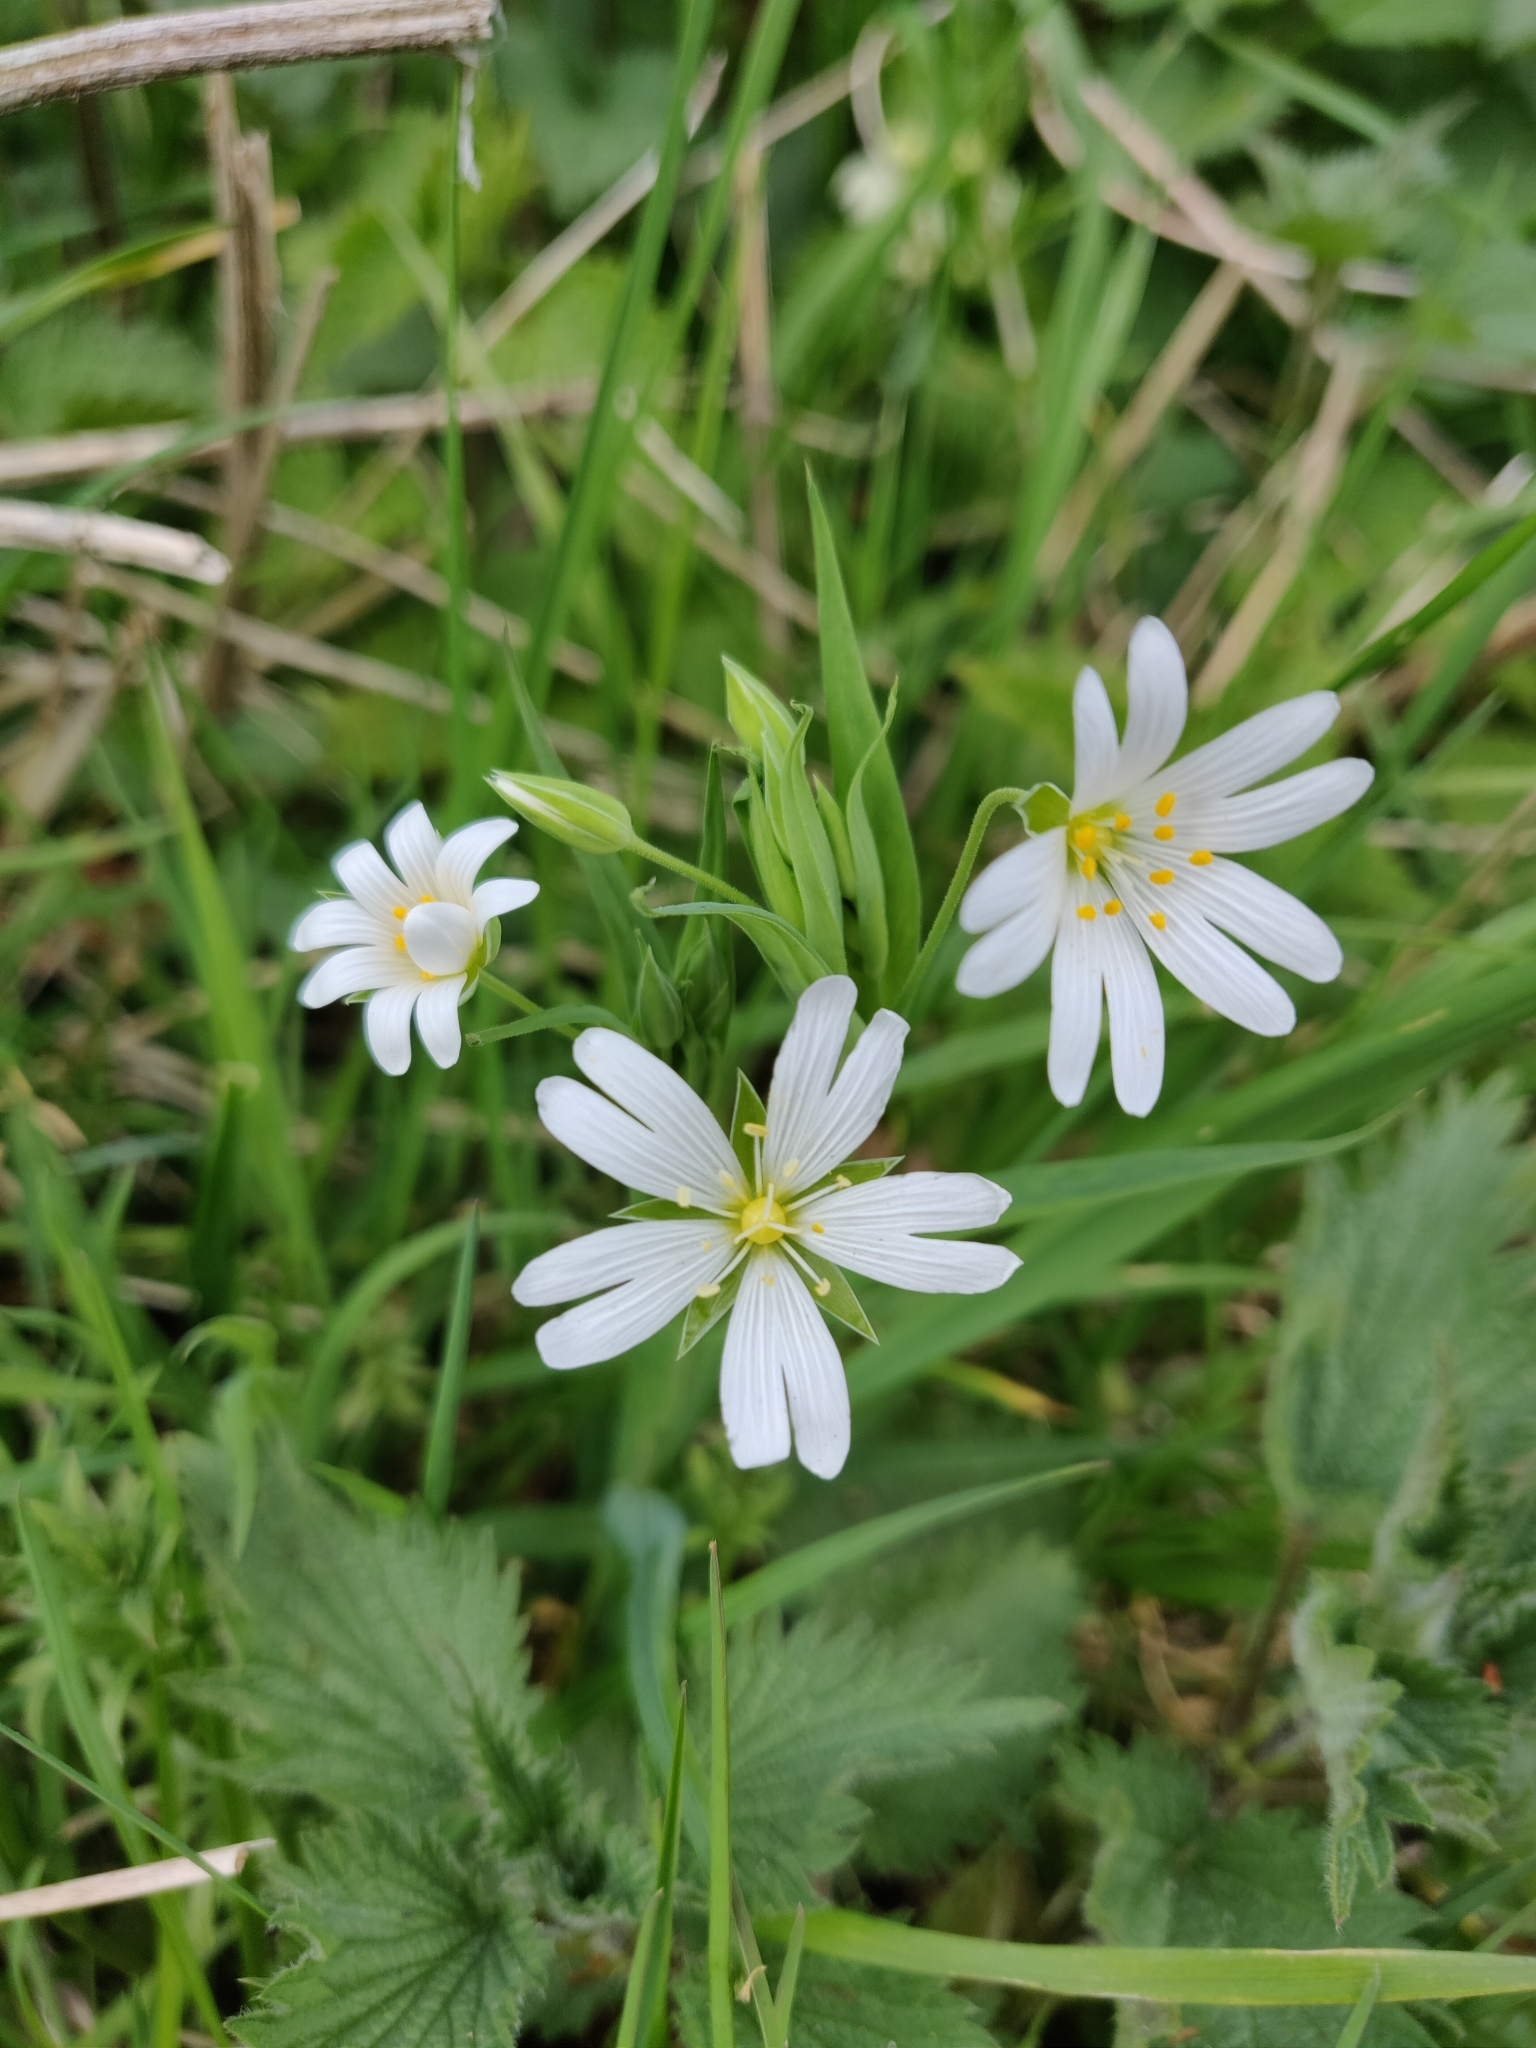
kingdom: Plantae
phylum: Tracheophyta
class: Magnoliopsida
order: Caryophyllales
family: Caryophyllaceae
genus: Rabelera
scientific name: Rabelera holostea
